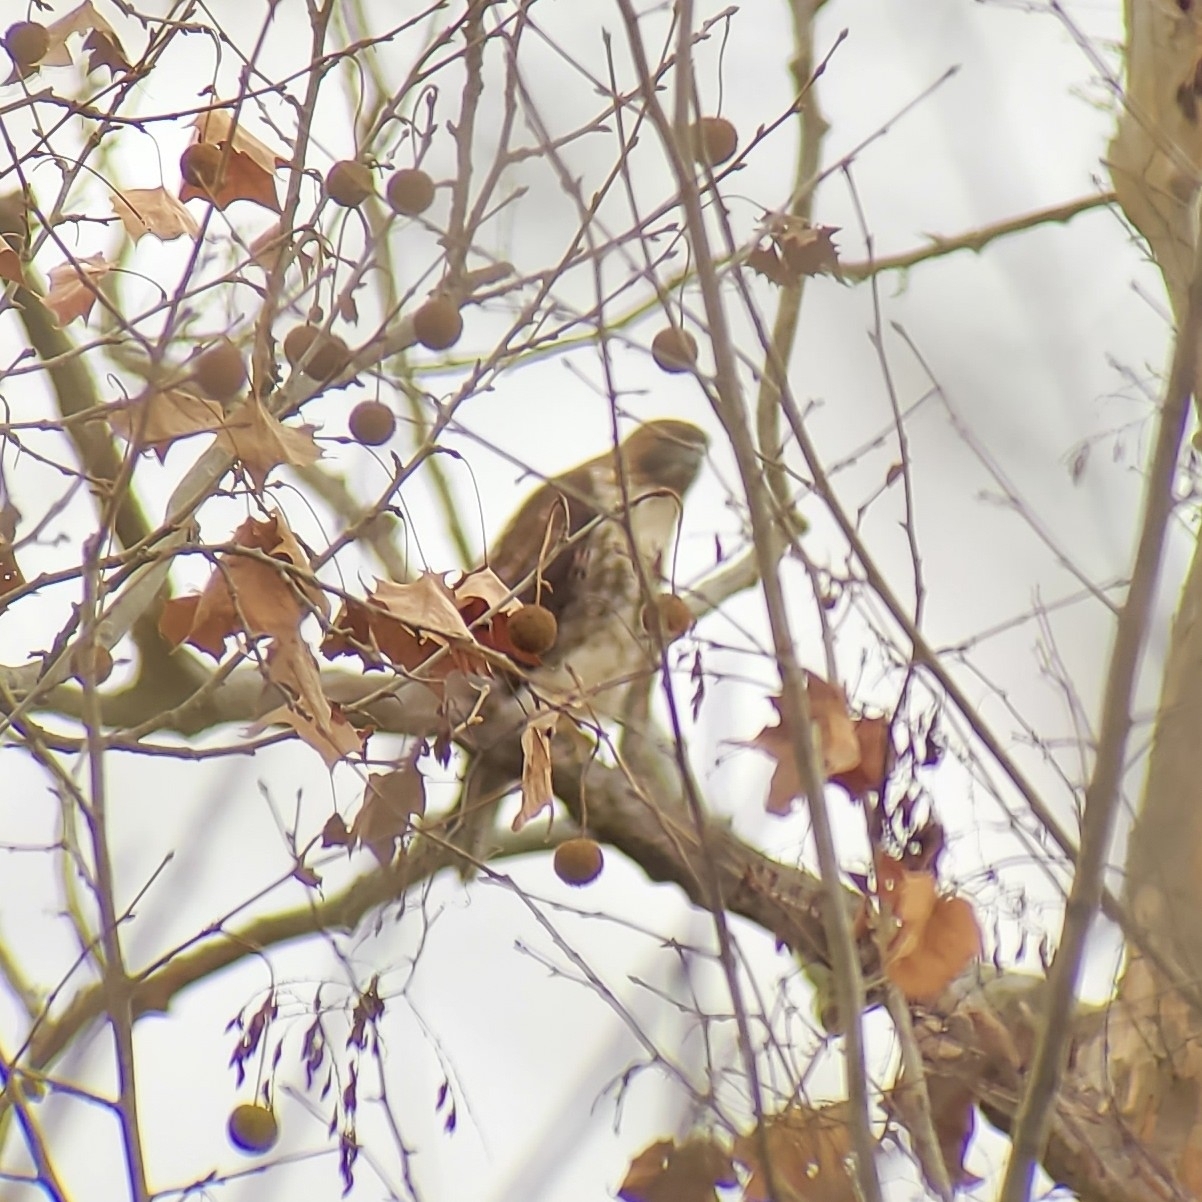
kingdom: Animalia
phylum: Chordata
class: Aves
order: Accipitriformes
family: Accipitridae
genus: Buteo
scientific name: Buteo jamaicensis
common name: Red-tailed hawk
